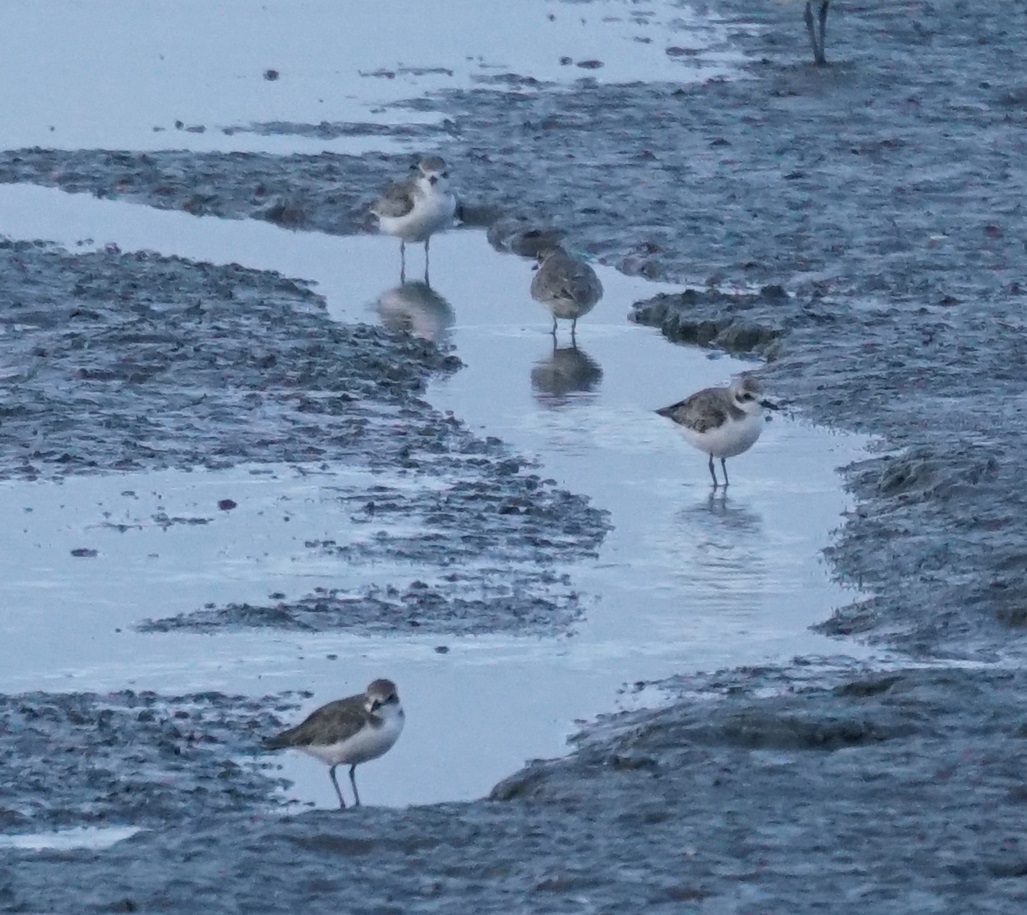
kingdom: Animalia
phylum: Chordata
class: Aves
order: Charadriiformes
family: Charadriidae
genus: Anarhynchus
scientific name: Anarhynchus
